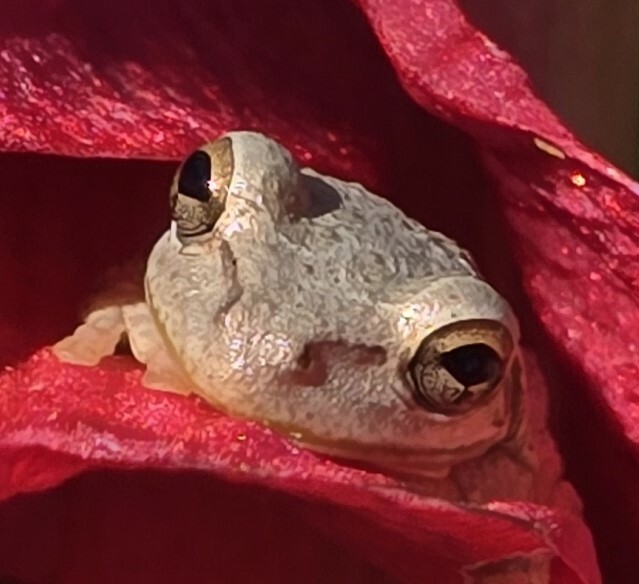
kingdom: Animalia
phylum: Chordata
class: Amphibia
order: Anura
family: Hylidae
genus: Osteopilus
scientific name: Osteopilus septentrionalis
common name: Cuban treefrog
